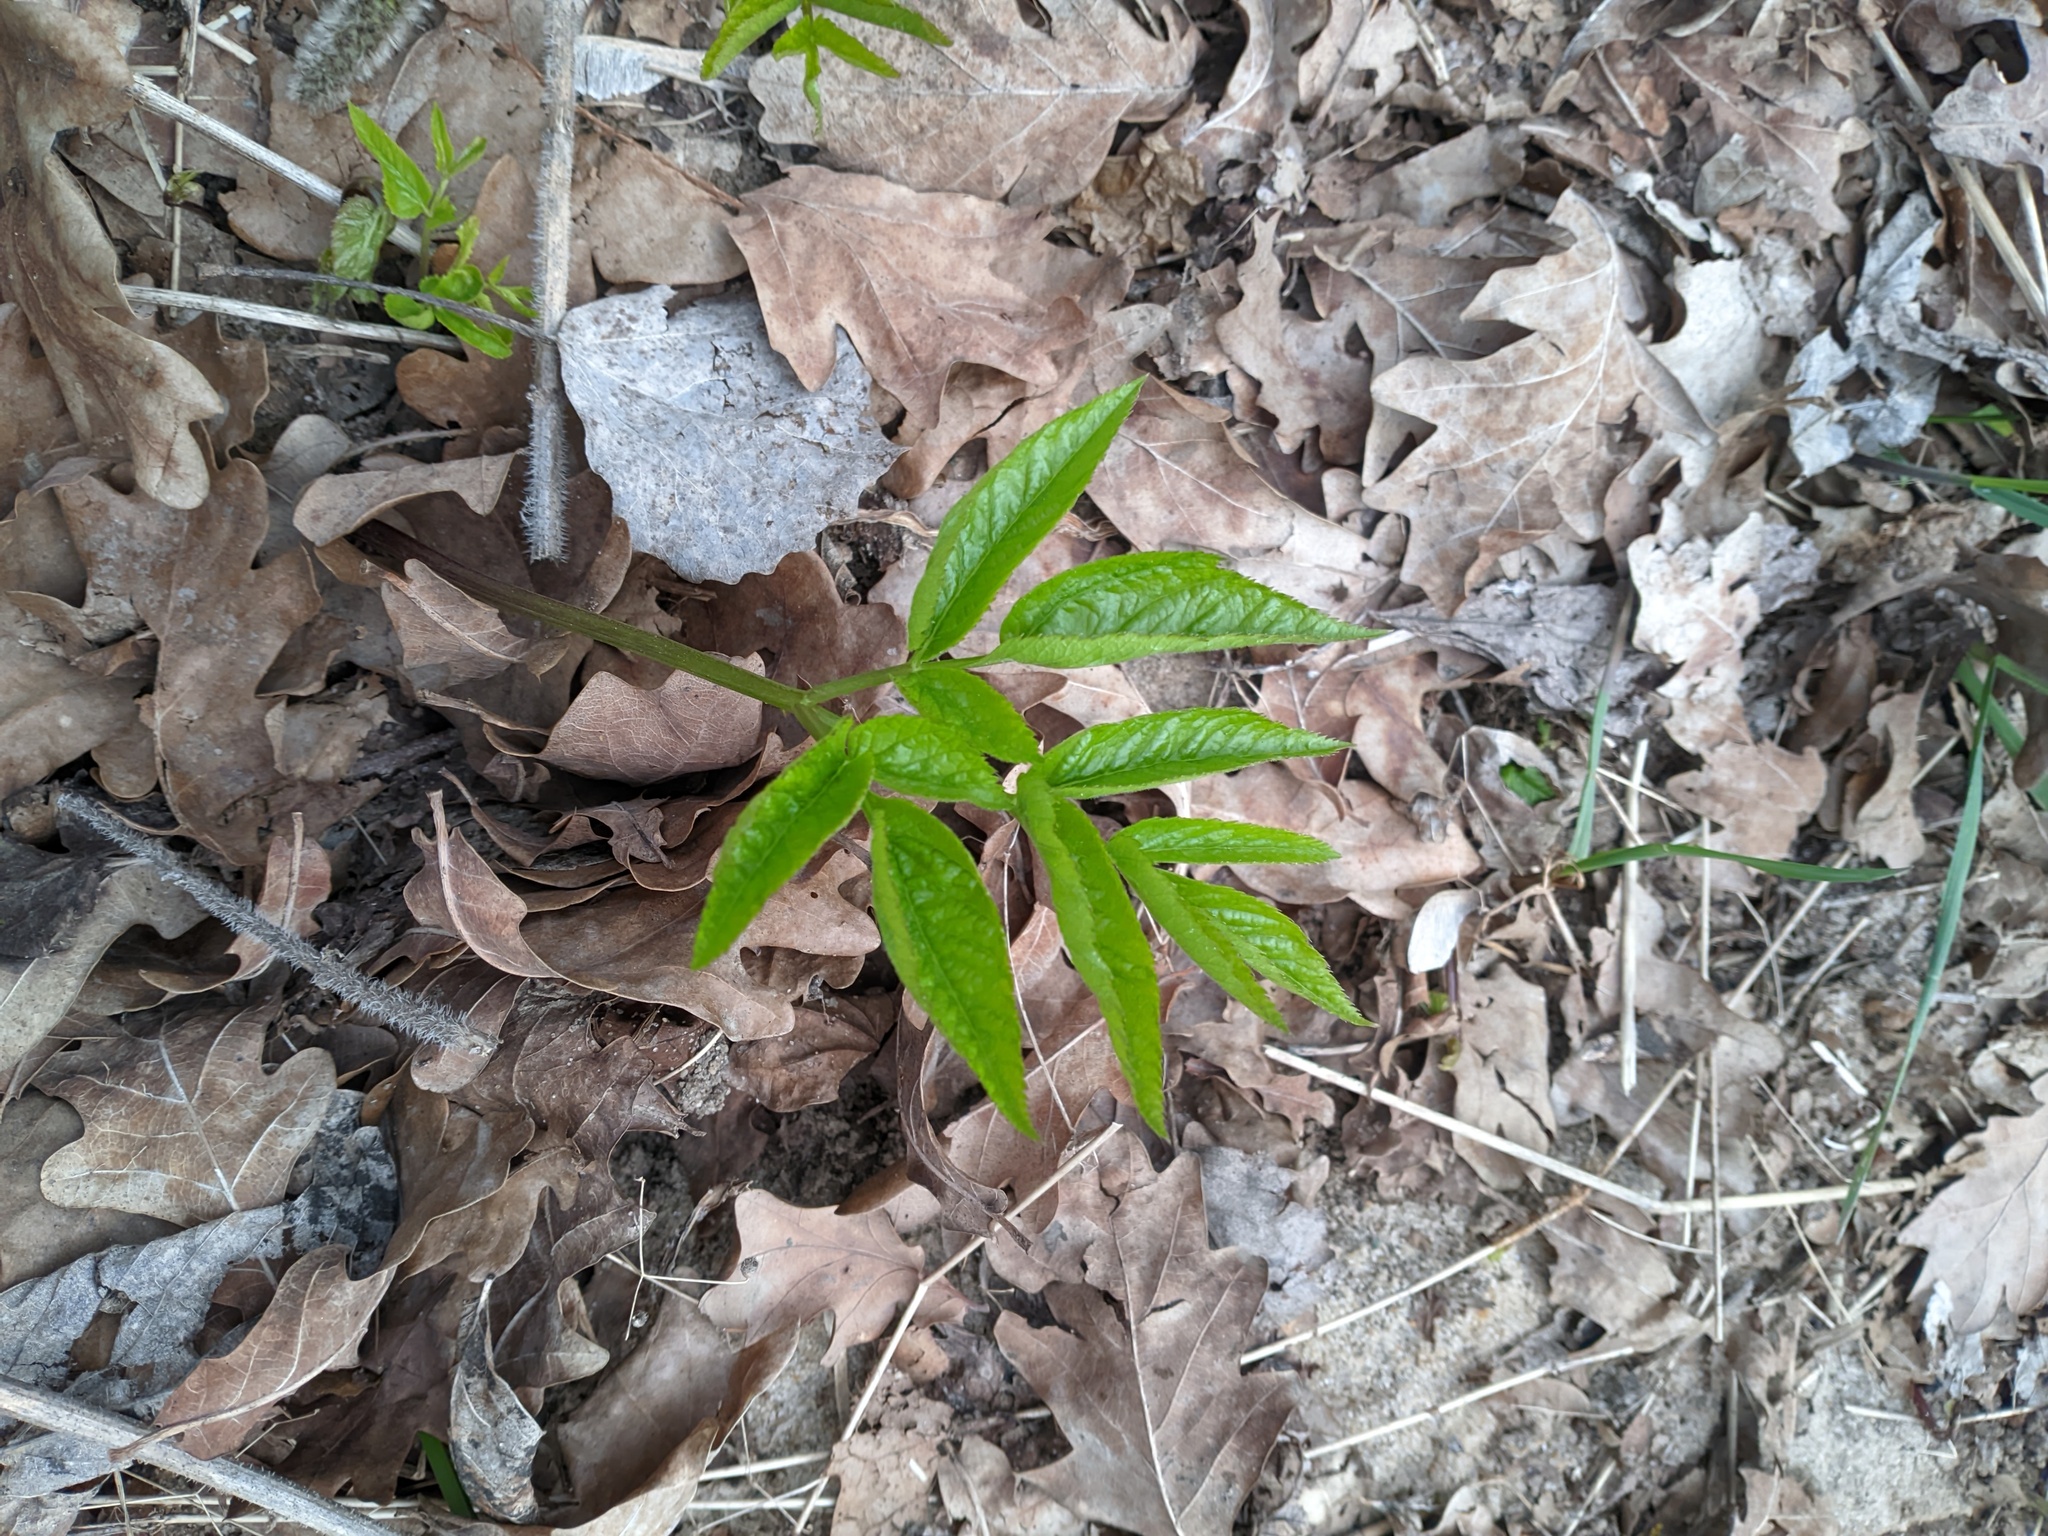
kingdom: Plantae
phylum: Tracheophyta
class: Magnoliopsida
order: Apiales
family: Apiaceae
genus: Aegopodium
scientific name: Aegopodium podagraria
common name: Ground-elder
